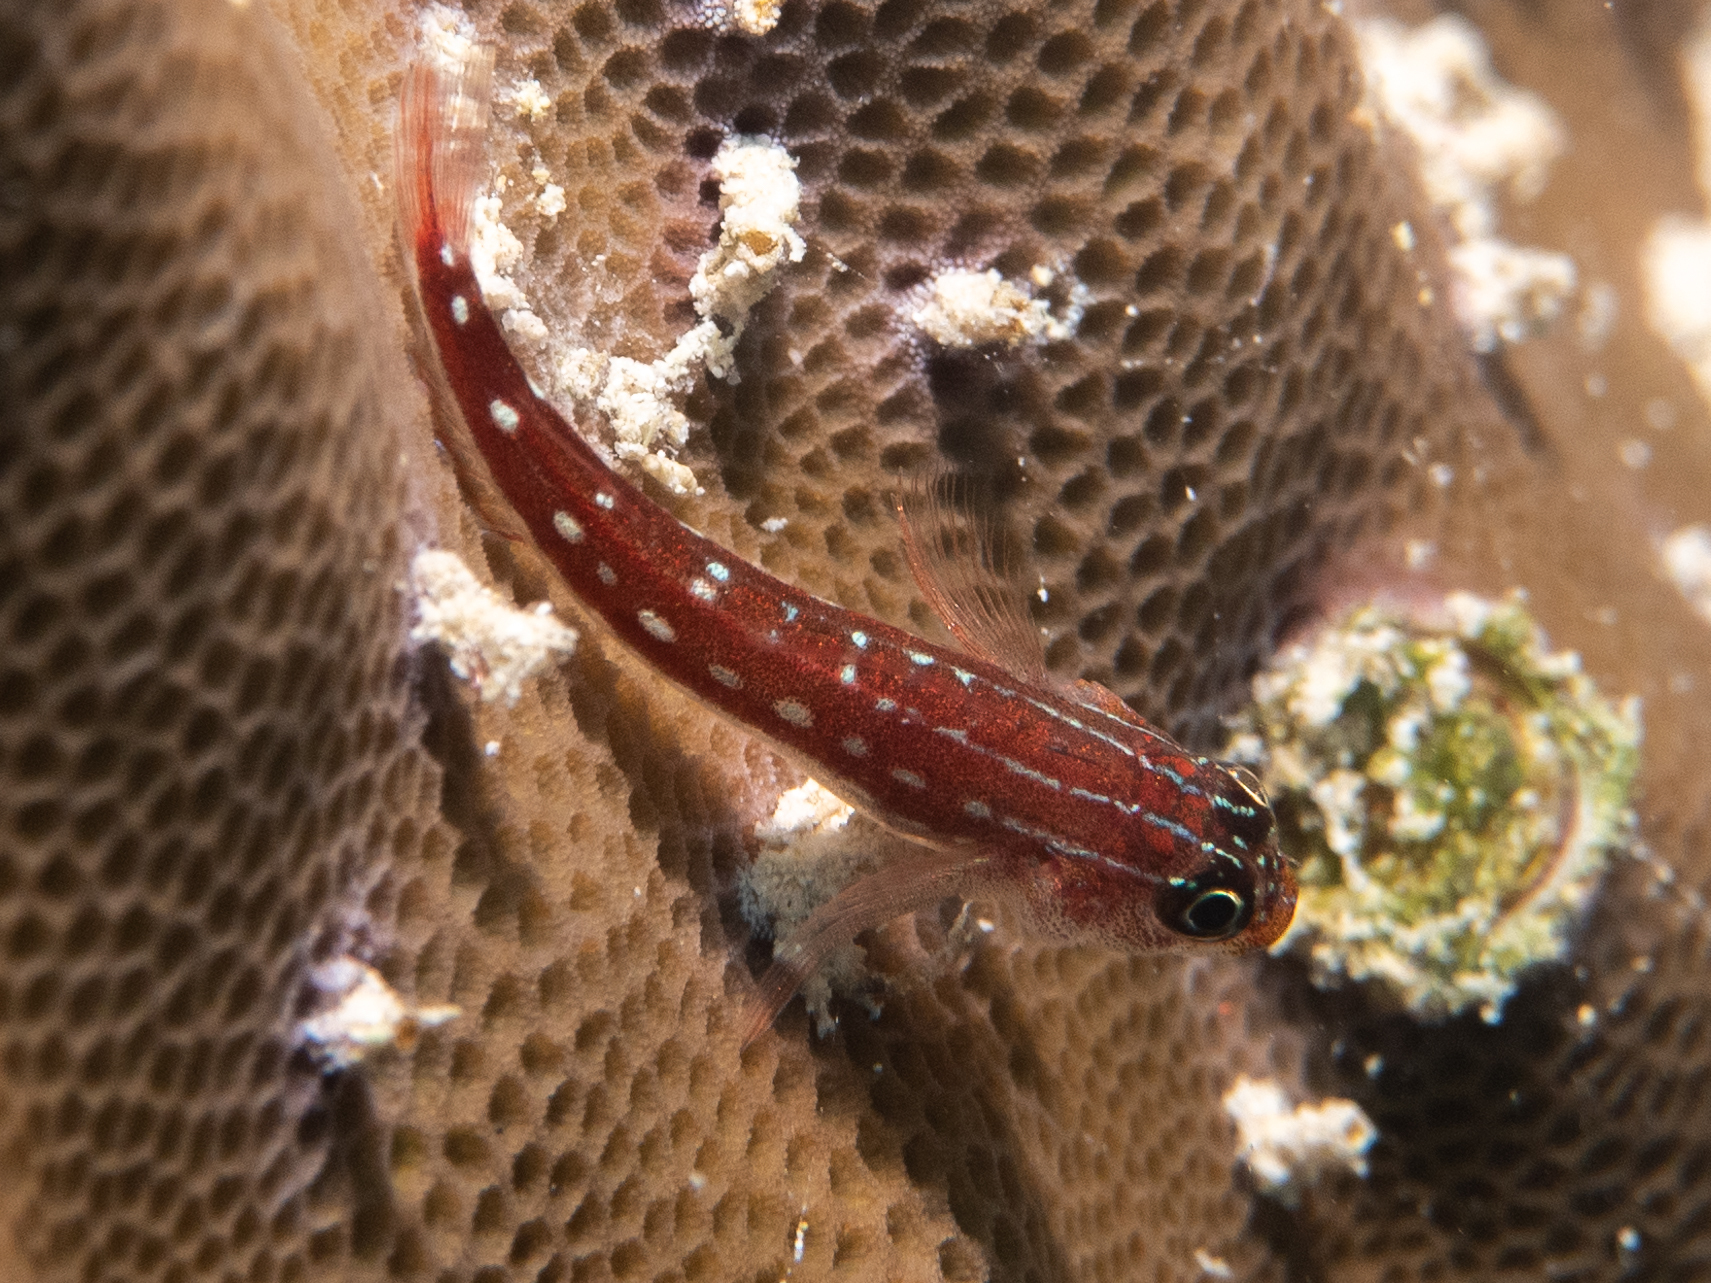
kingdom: Animalia
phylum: Chordata
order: Perciformes
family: Tripterygiidae
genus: Helcogramma
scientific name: Helcogramma maldivensis
